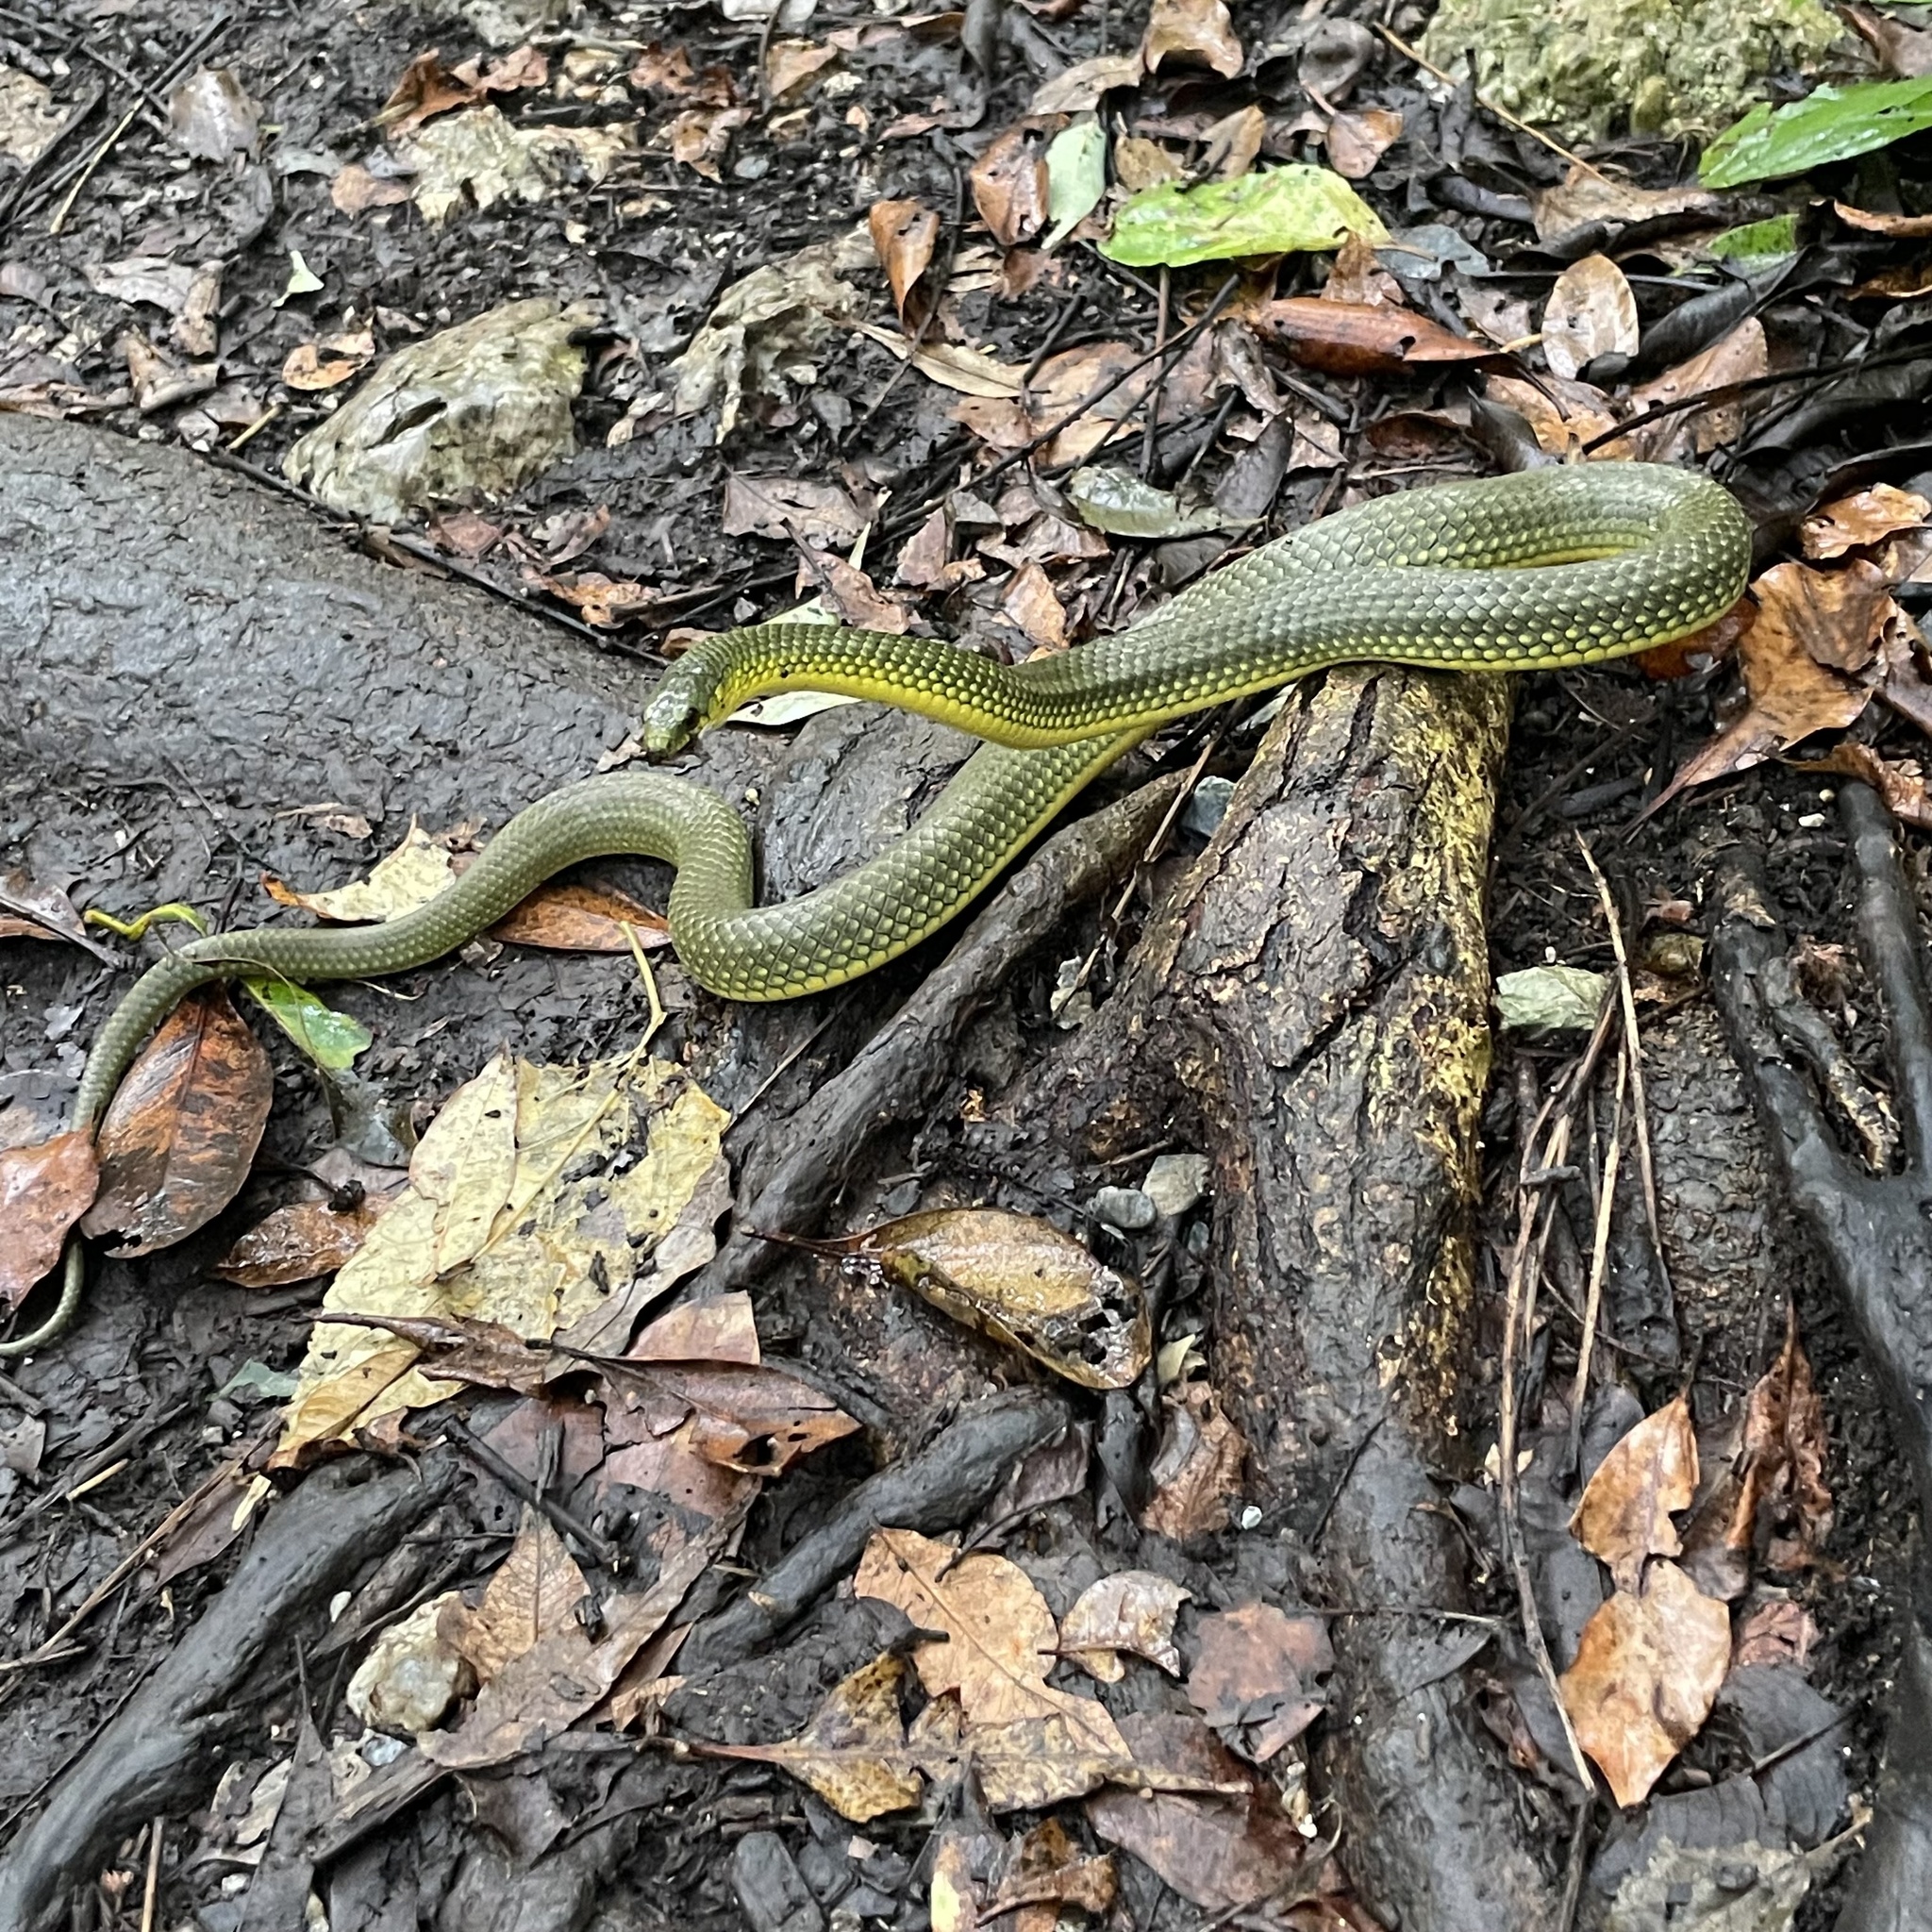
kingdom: Animalia
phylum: Chordata
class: Squamata
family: Colubridae
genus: Ptyas
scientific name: Ptyas semicarinata
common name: Ryukyu green snake
